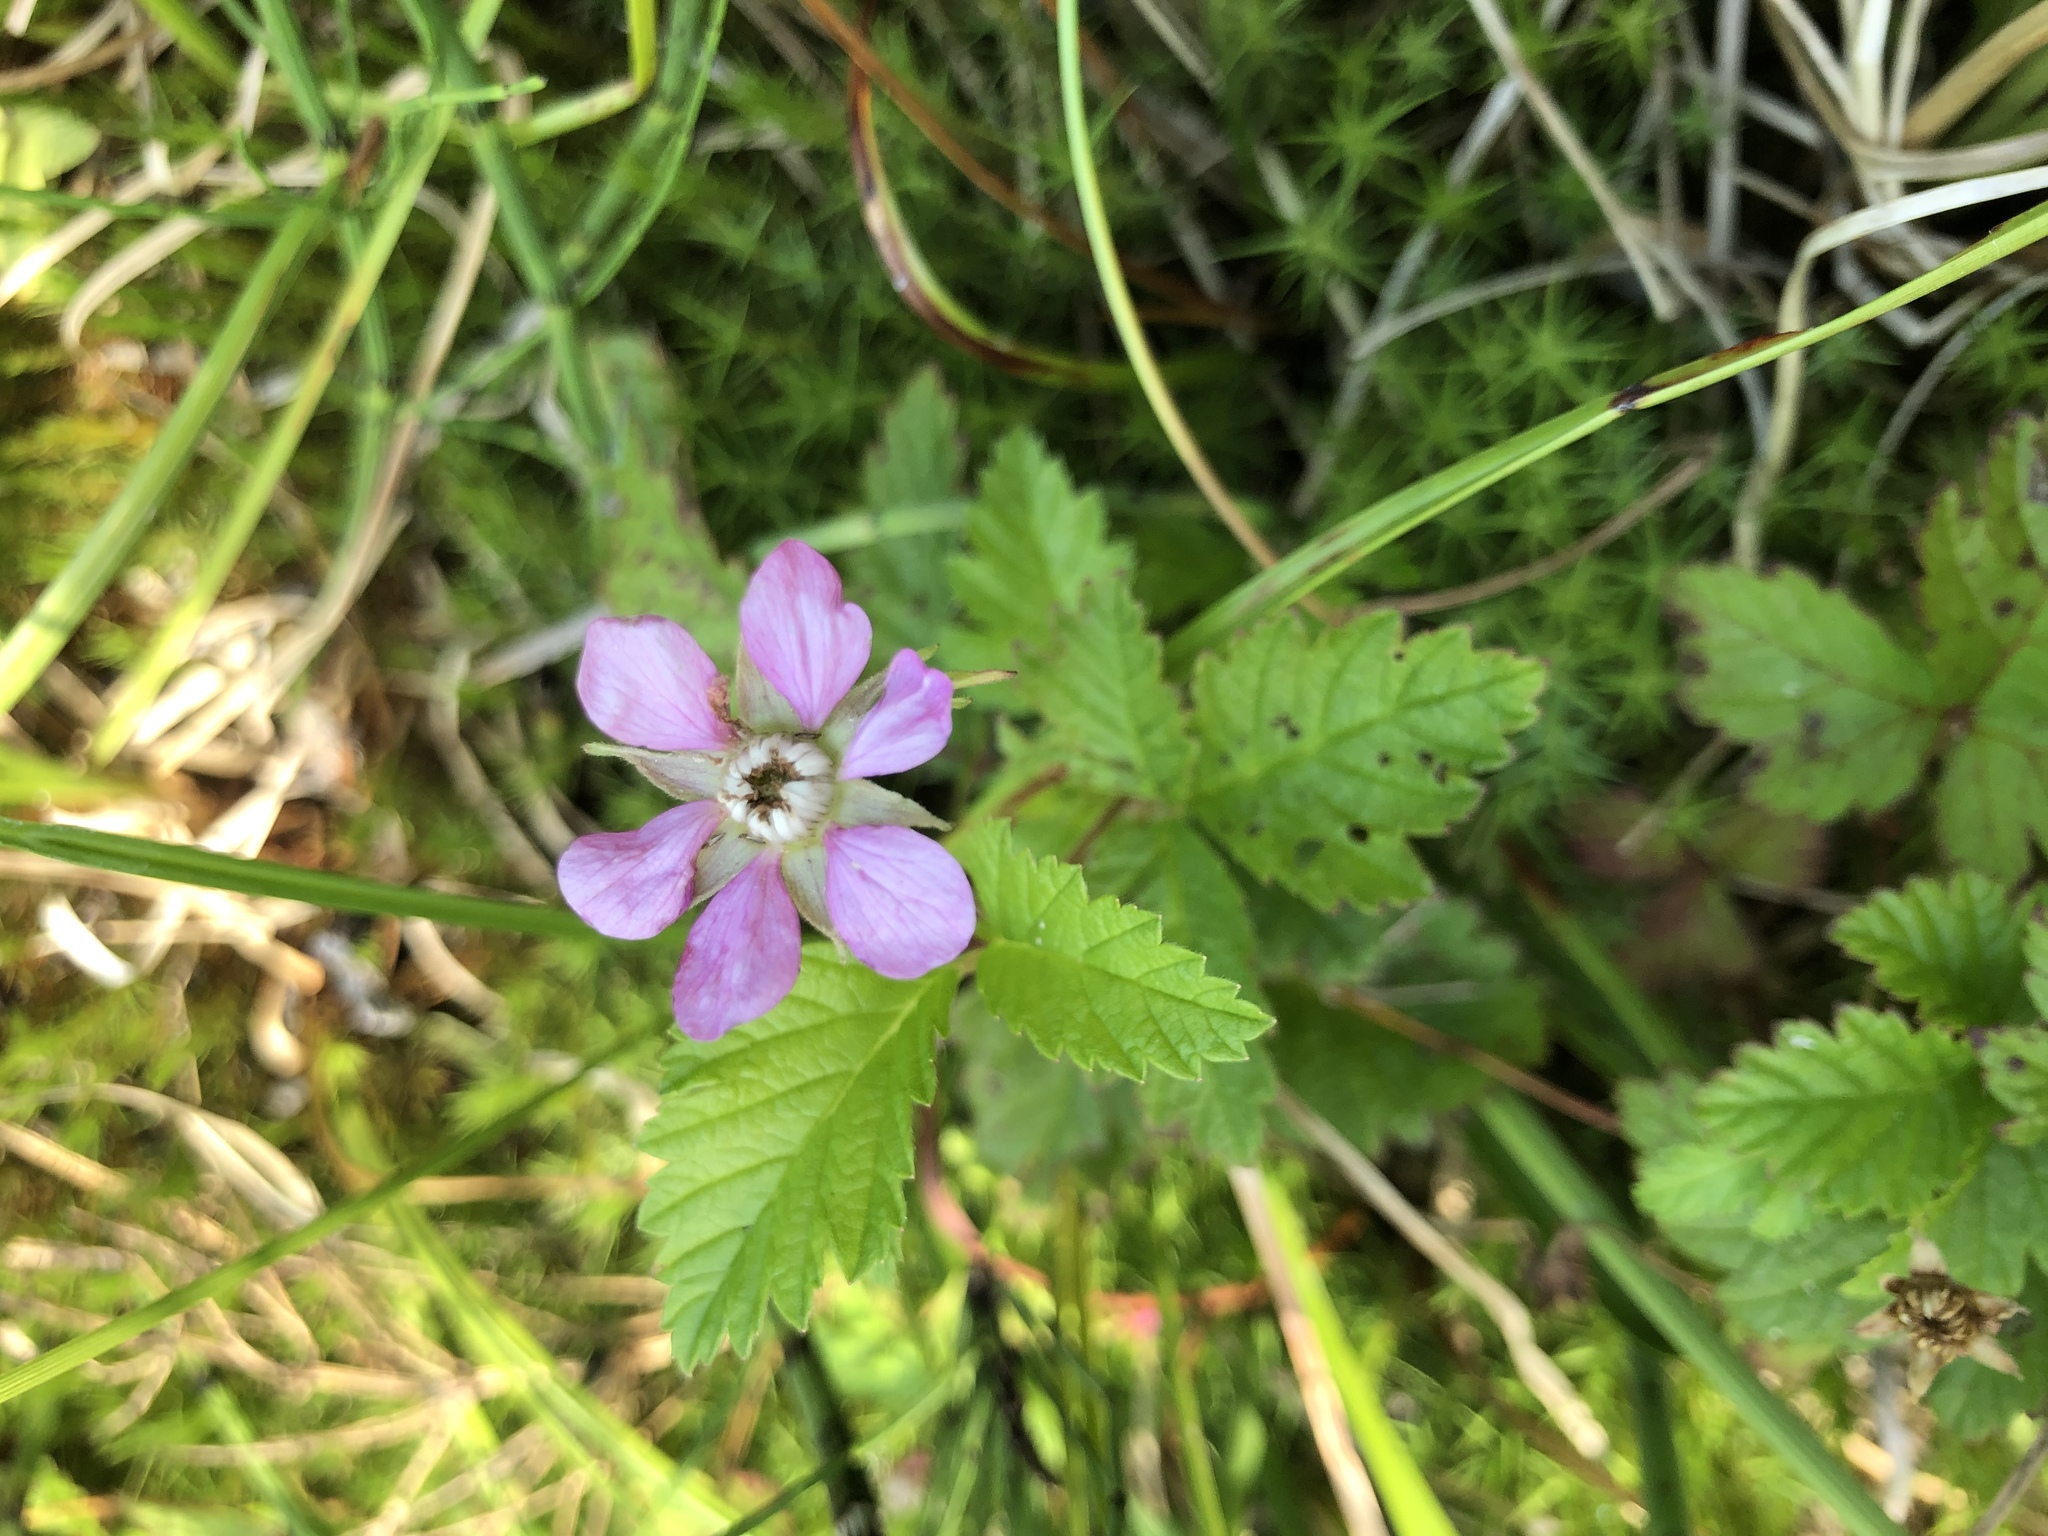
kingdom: Plantae
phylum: Tracheophyta
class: Magnoliopsida
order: Rosales
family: Rosaceae
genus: Rubus
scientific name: Rubus arcticus
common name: Arctic bramble
